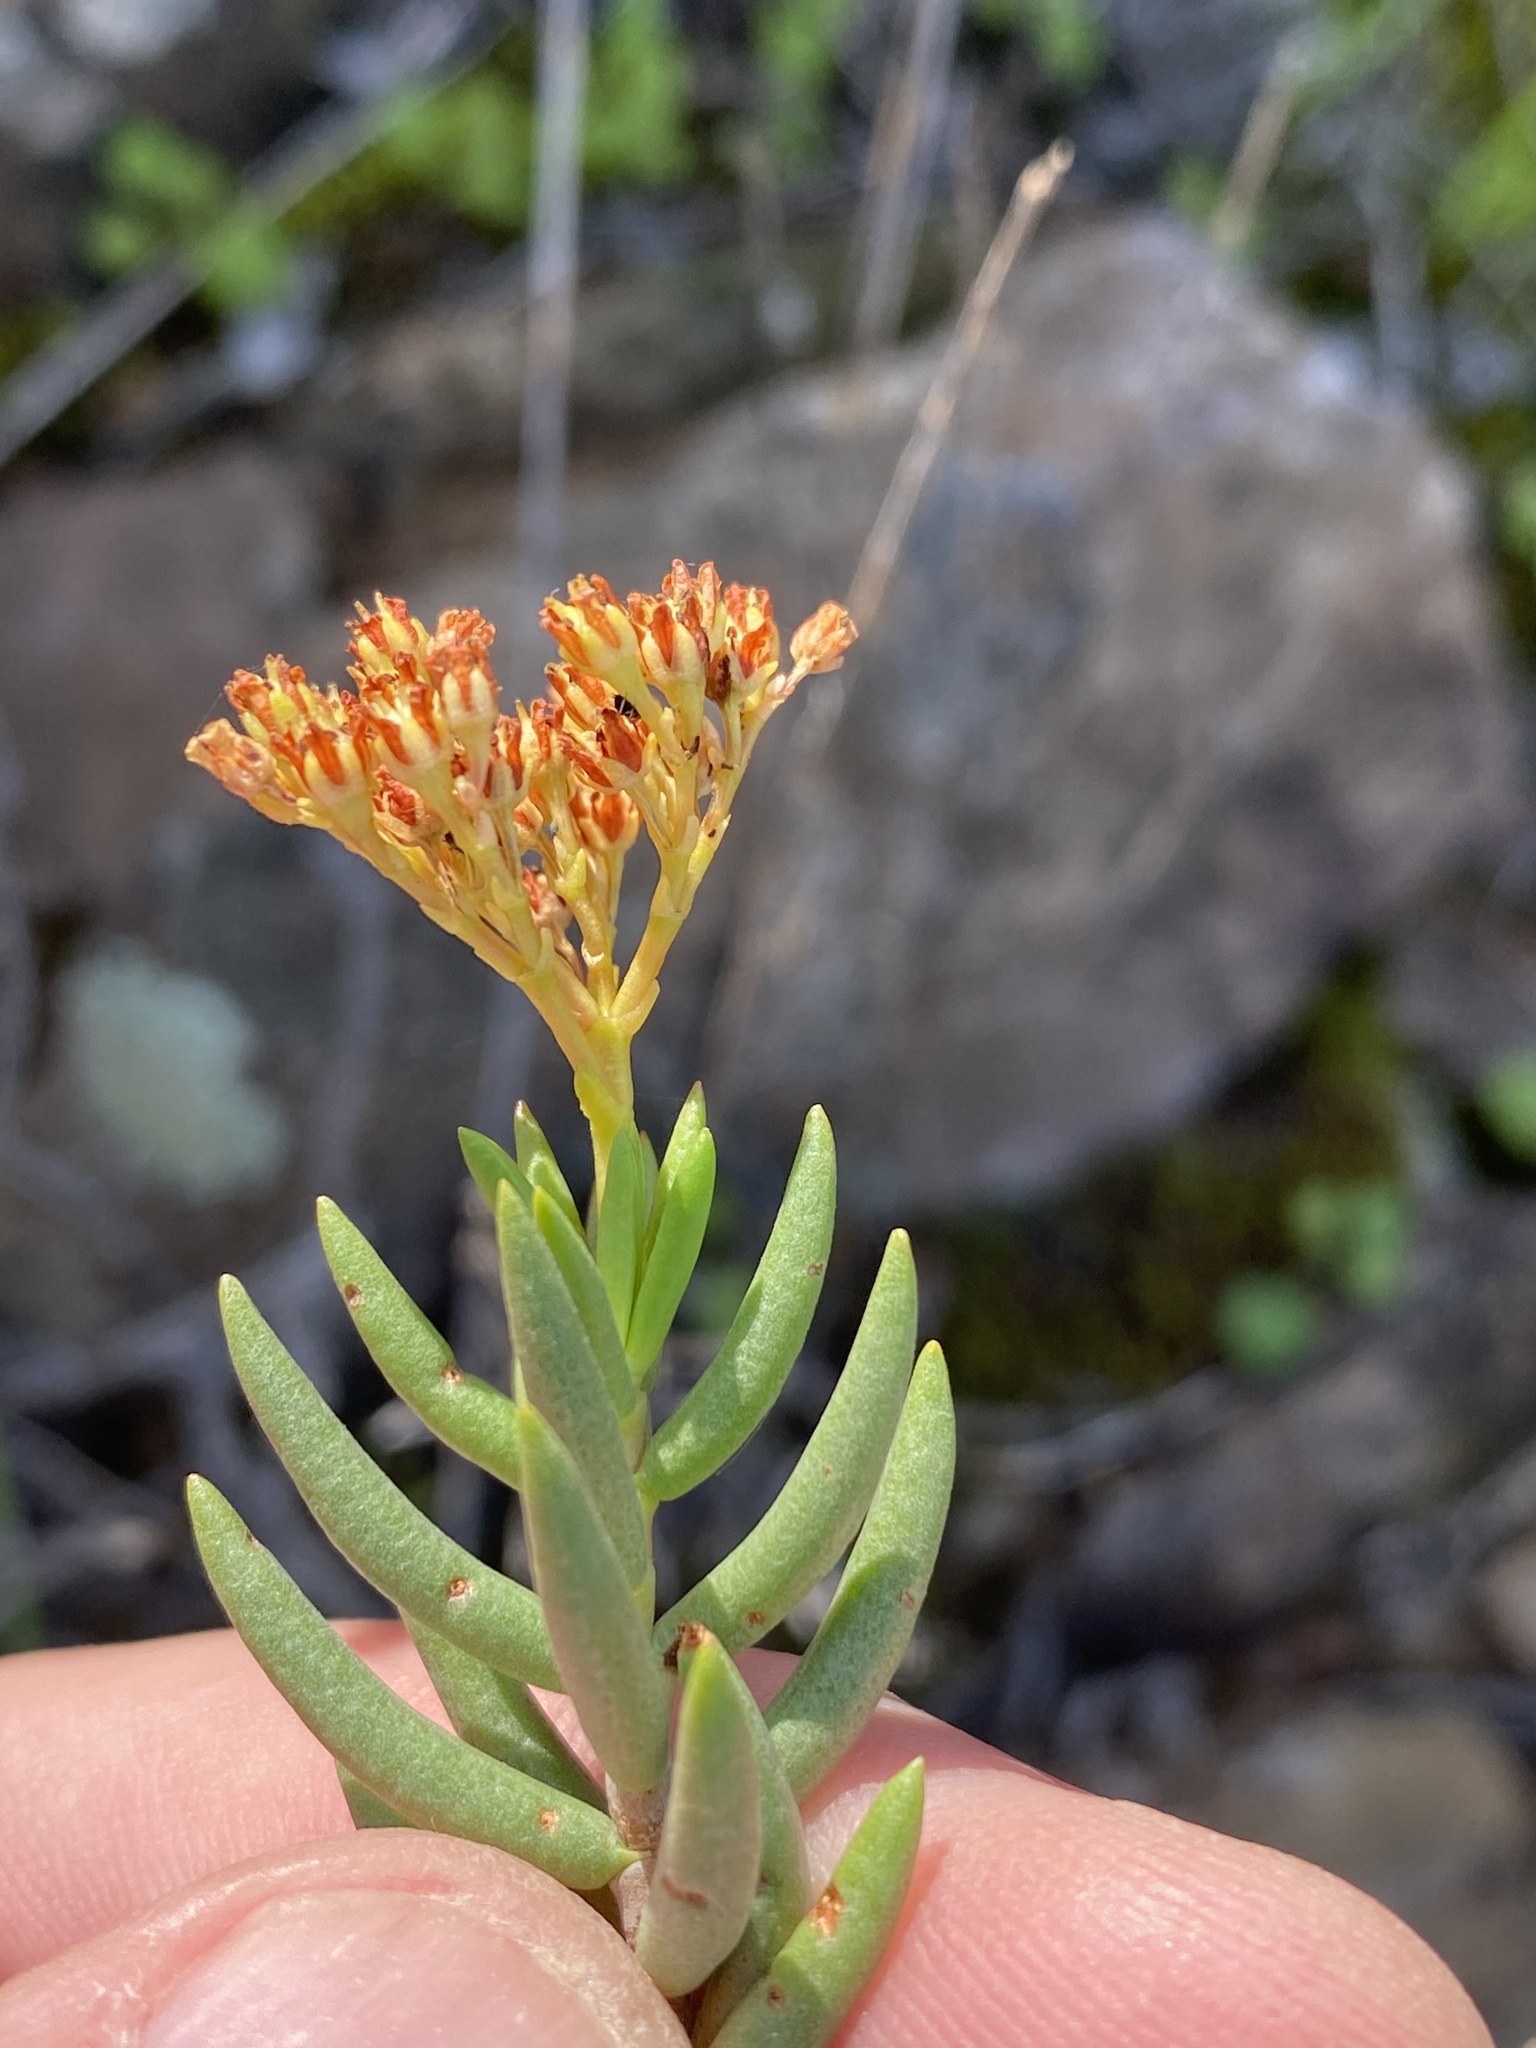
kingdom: Plantae
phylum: Tracheophyta
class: Magnoliopsida
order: Saxifragales
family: Crassulaceae
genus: Crassula
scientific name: Crassula tetragona
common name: Pygmyweed
